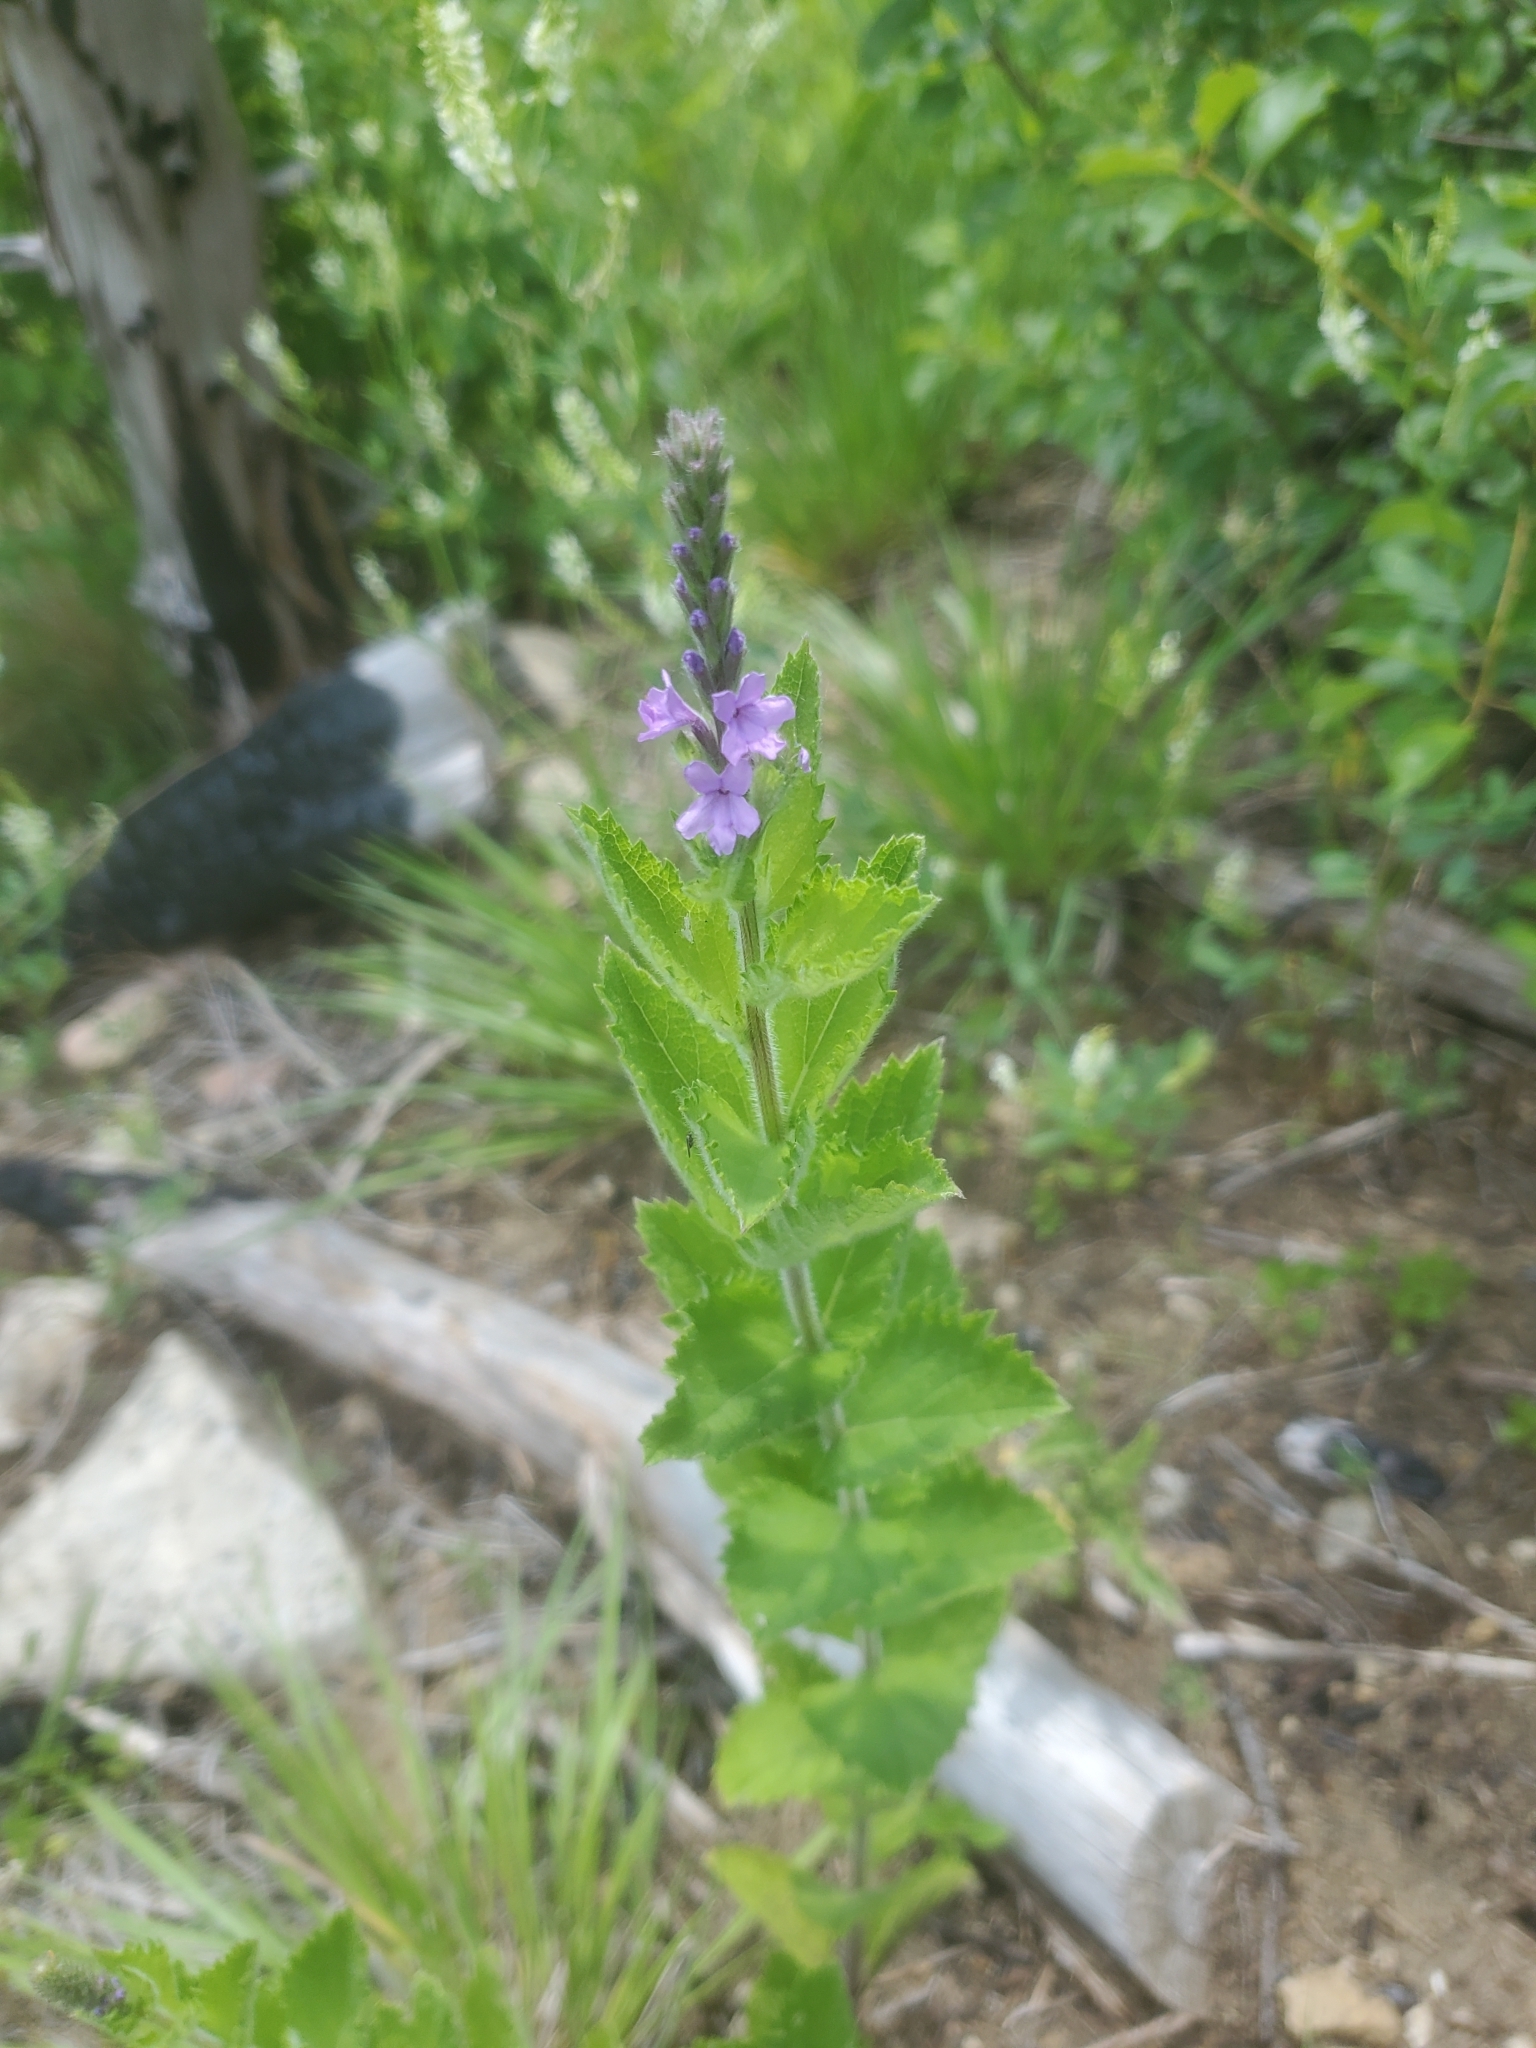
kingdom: Plantae
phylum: Tracheophyta
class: Magnoliopsida
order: Lamiales
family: Verbenaceae
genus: Verbena
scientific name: Verbena stricta
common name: Hoary vervain
